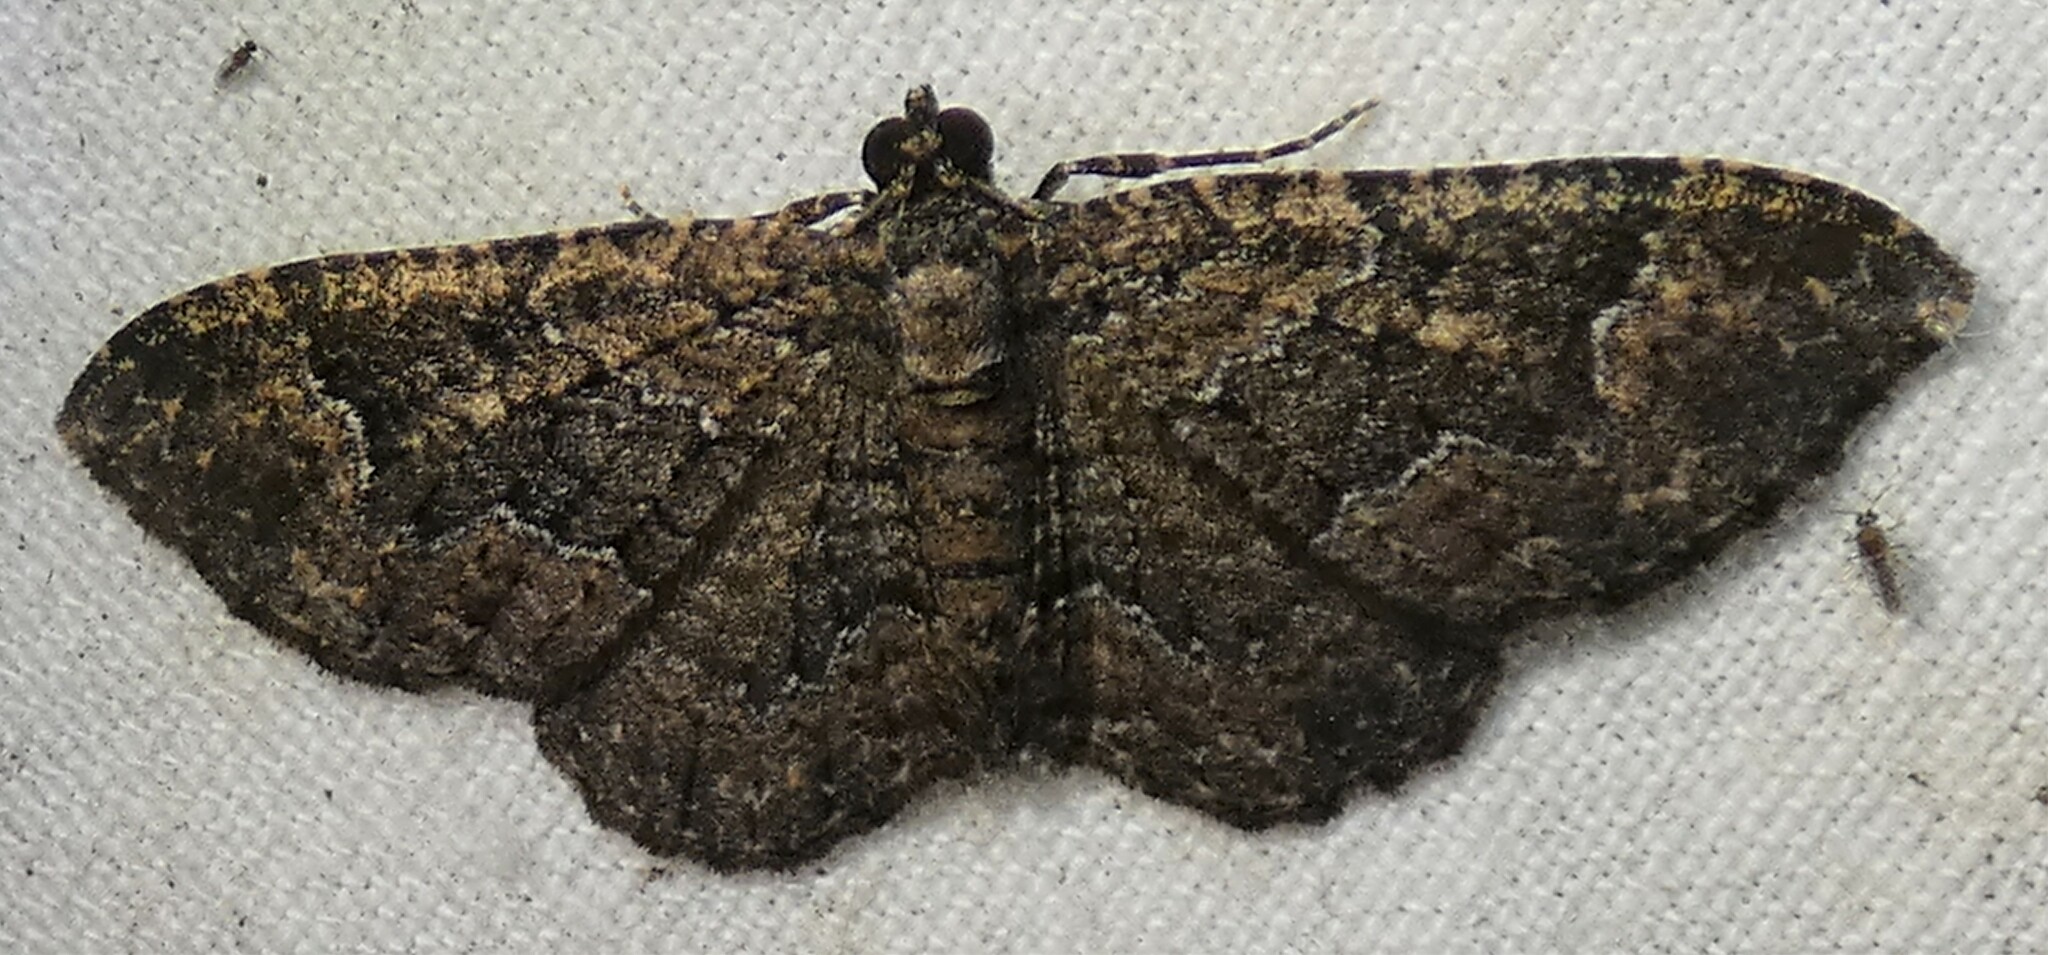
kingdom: Animalia
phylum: Arthropoda
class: Insecta
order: Lepidoptera
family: Geometridae
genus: Disclisioprocta
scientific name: Disclisioprocta stellata
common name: Somber carpet
